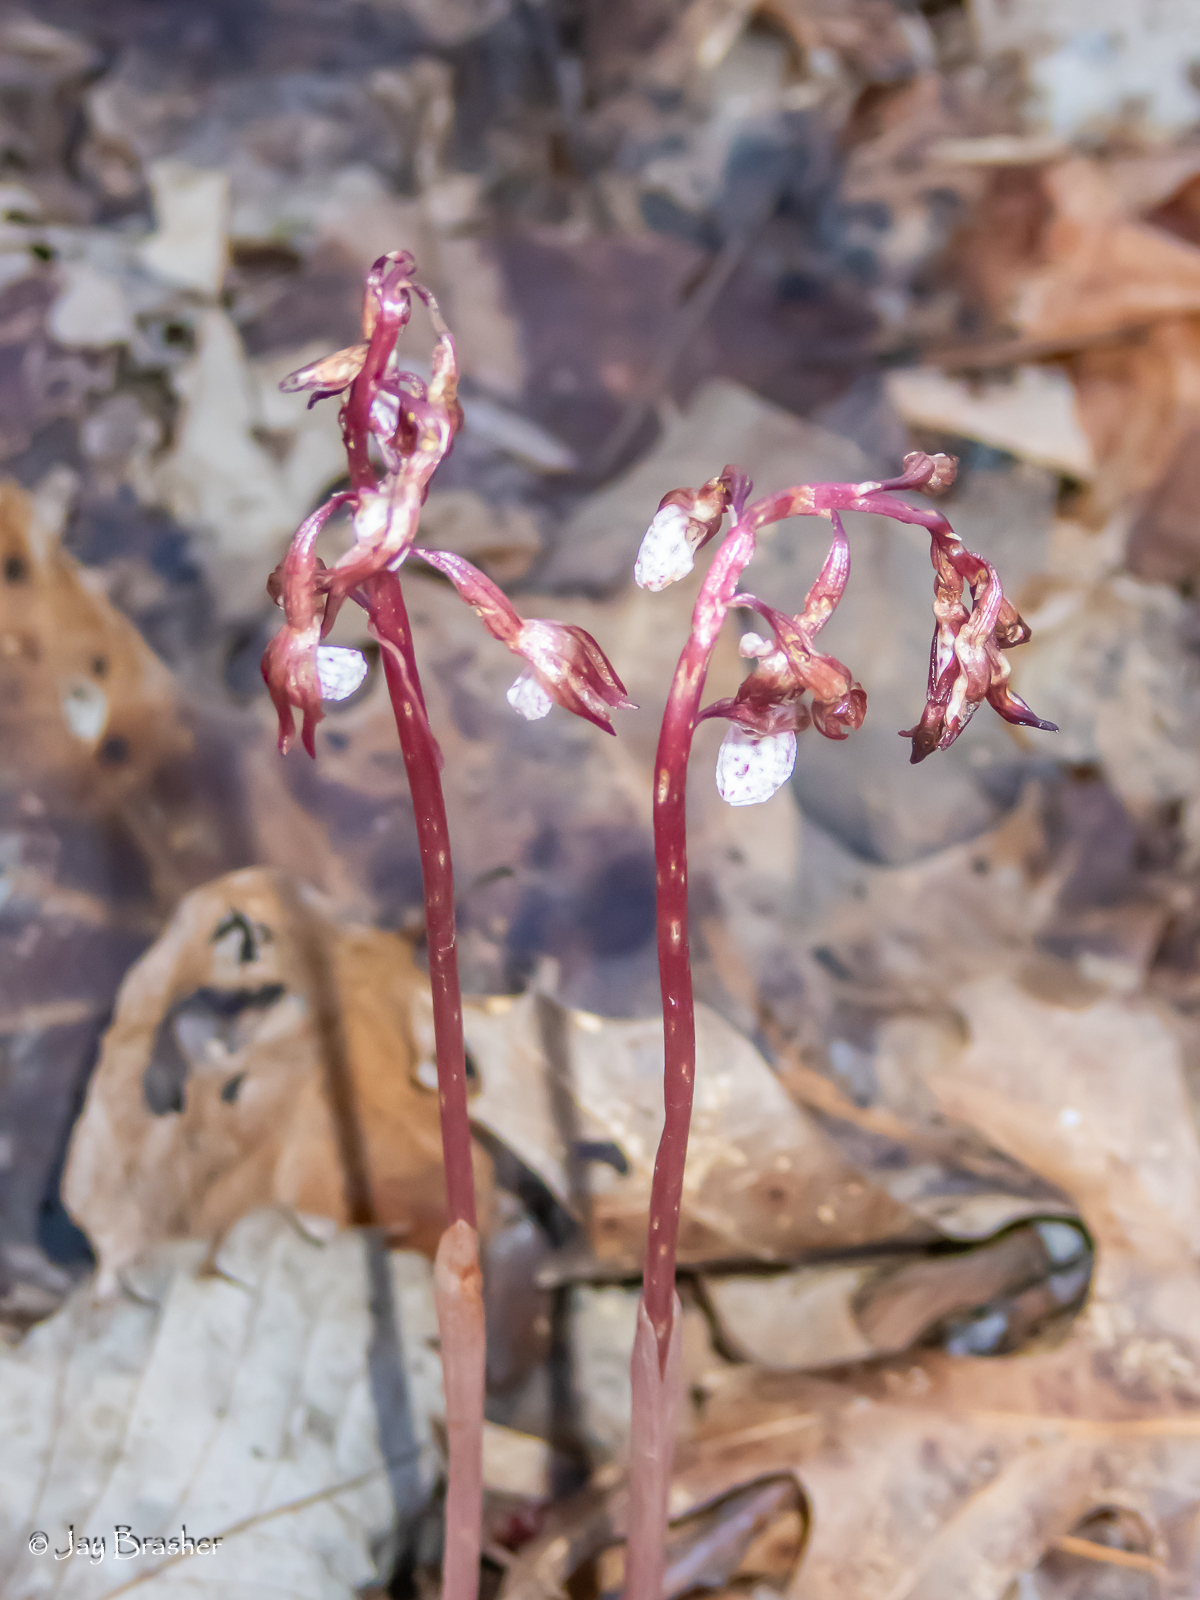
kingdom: Plantae
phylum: Tracheophyta
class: Liliopsida
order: Asparagales
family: Orchidaceae
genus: Corallorhiza
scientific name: Corallorhiza wisteriana
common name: Spring coralroot
